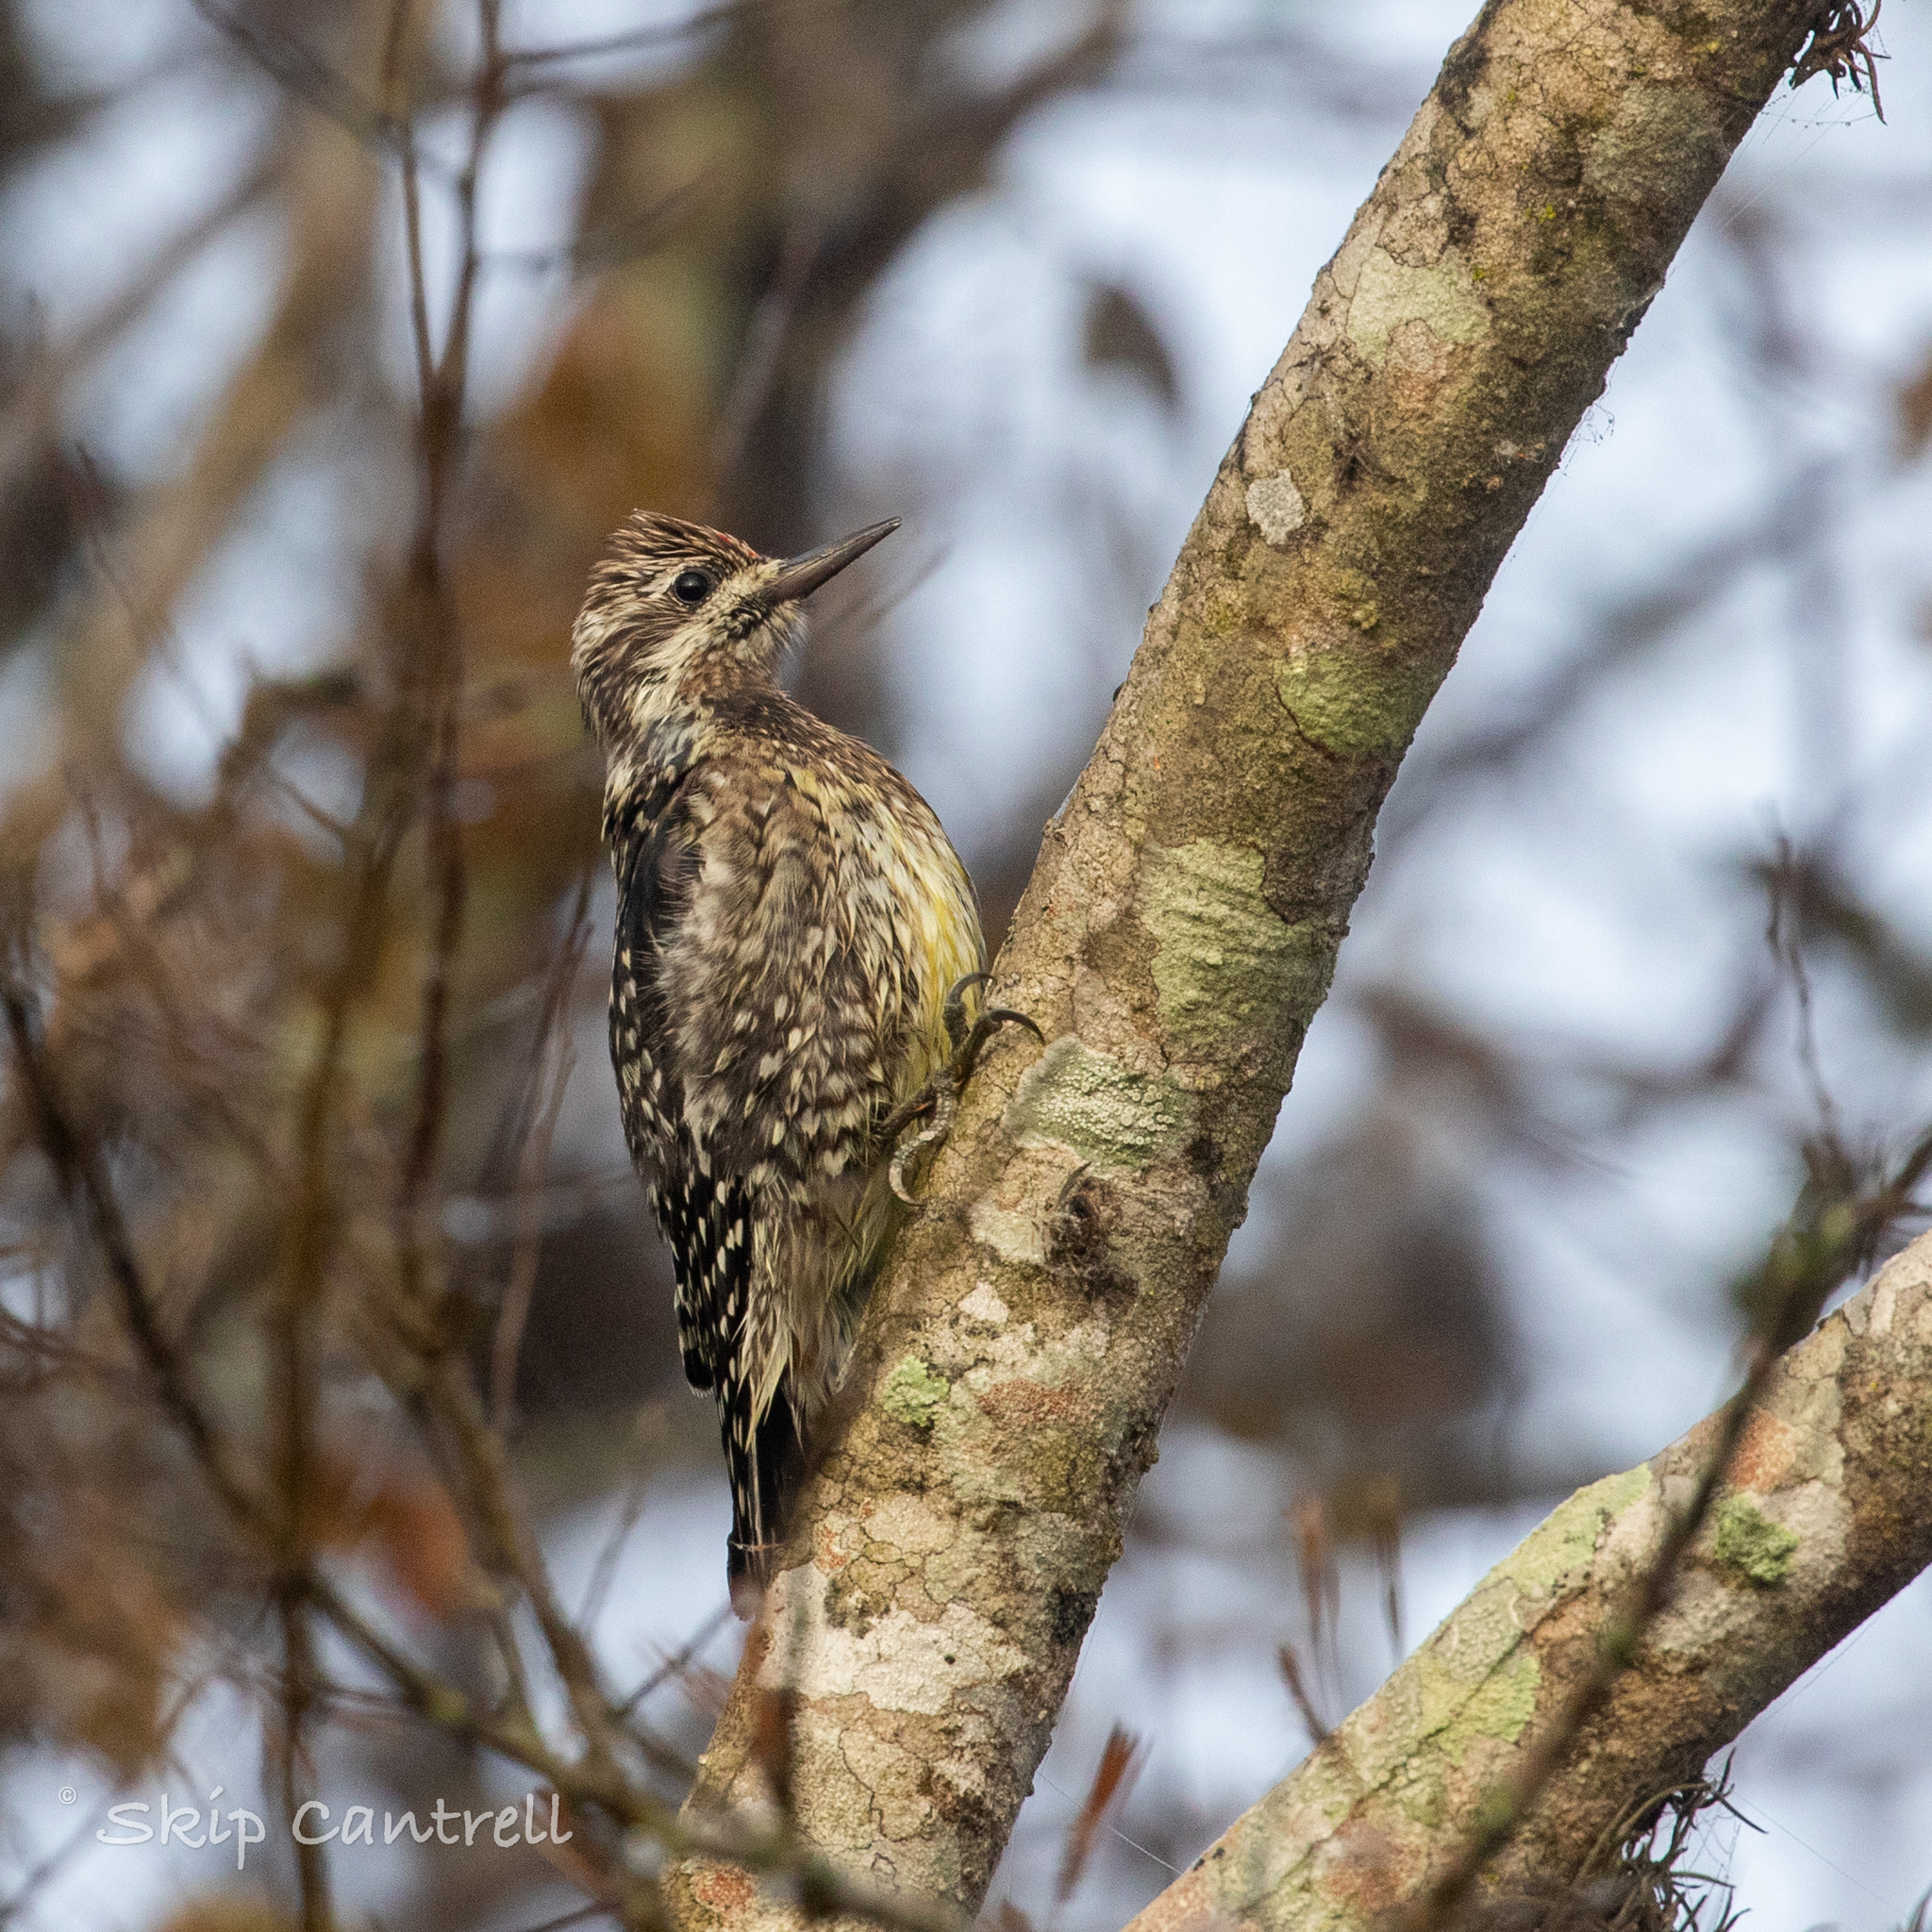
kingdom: Animalia
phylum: Chordata
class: Aves
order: Piciformes
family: Picidae
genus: Sphyrapicus
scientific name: Sphyrapicus varius
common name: Yellow-bellied sapsucker
